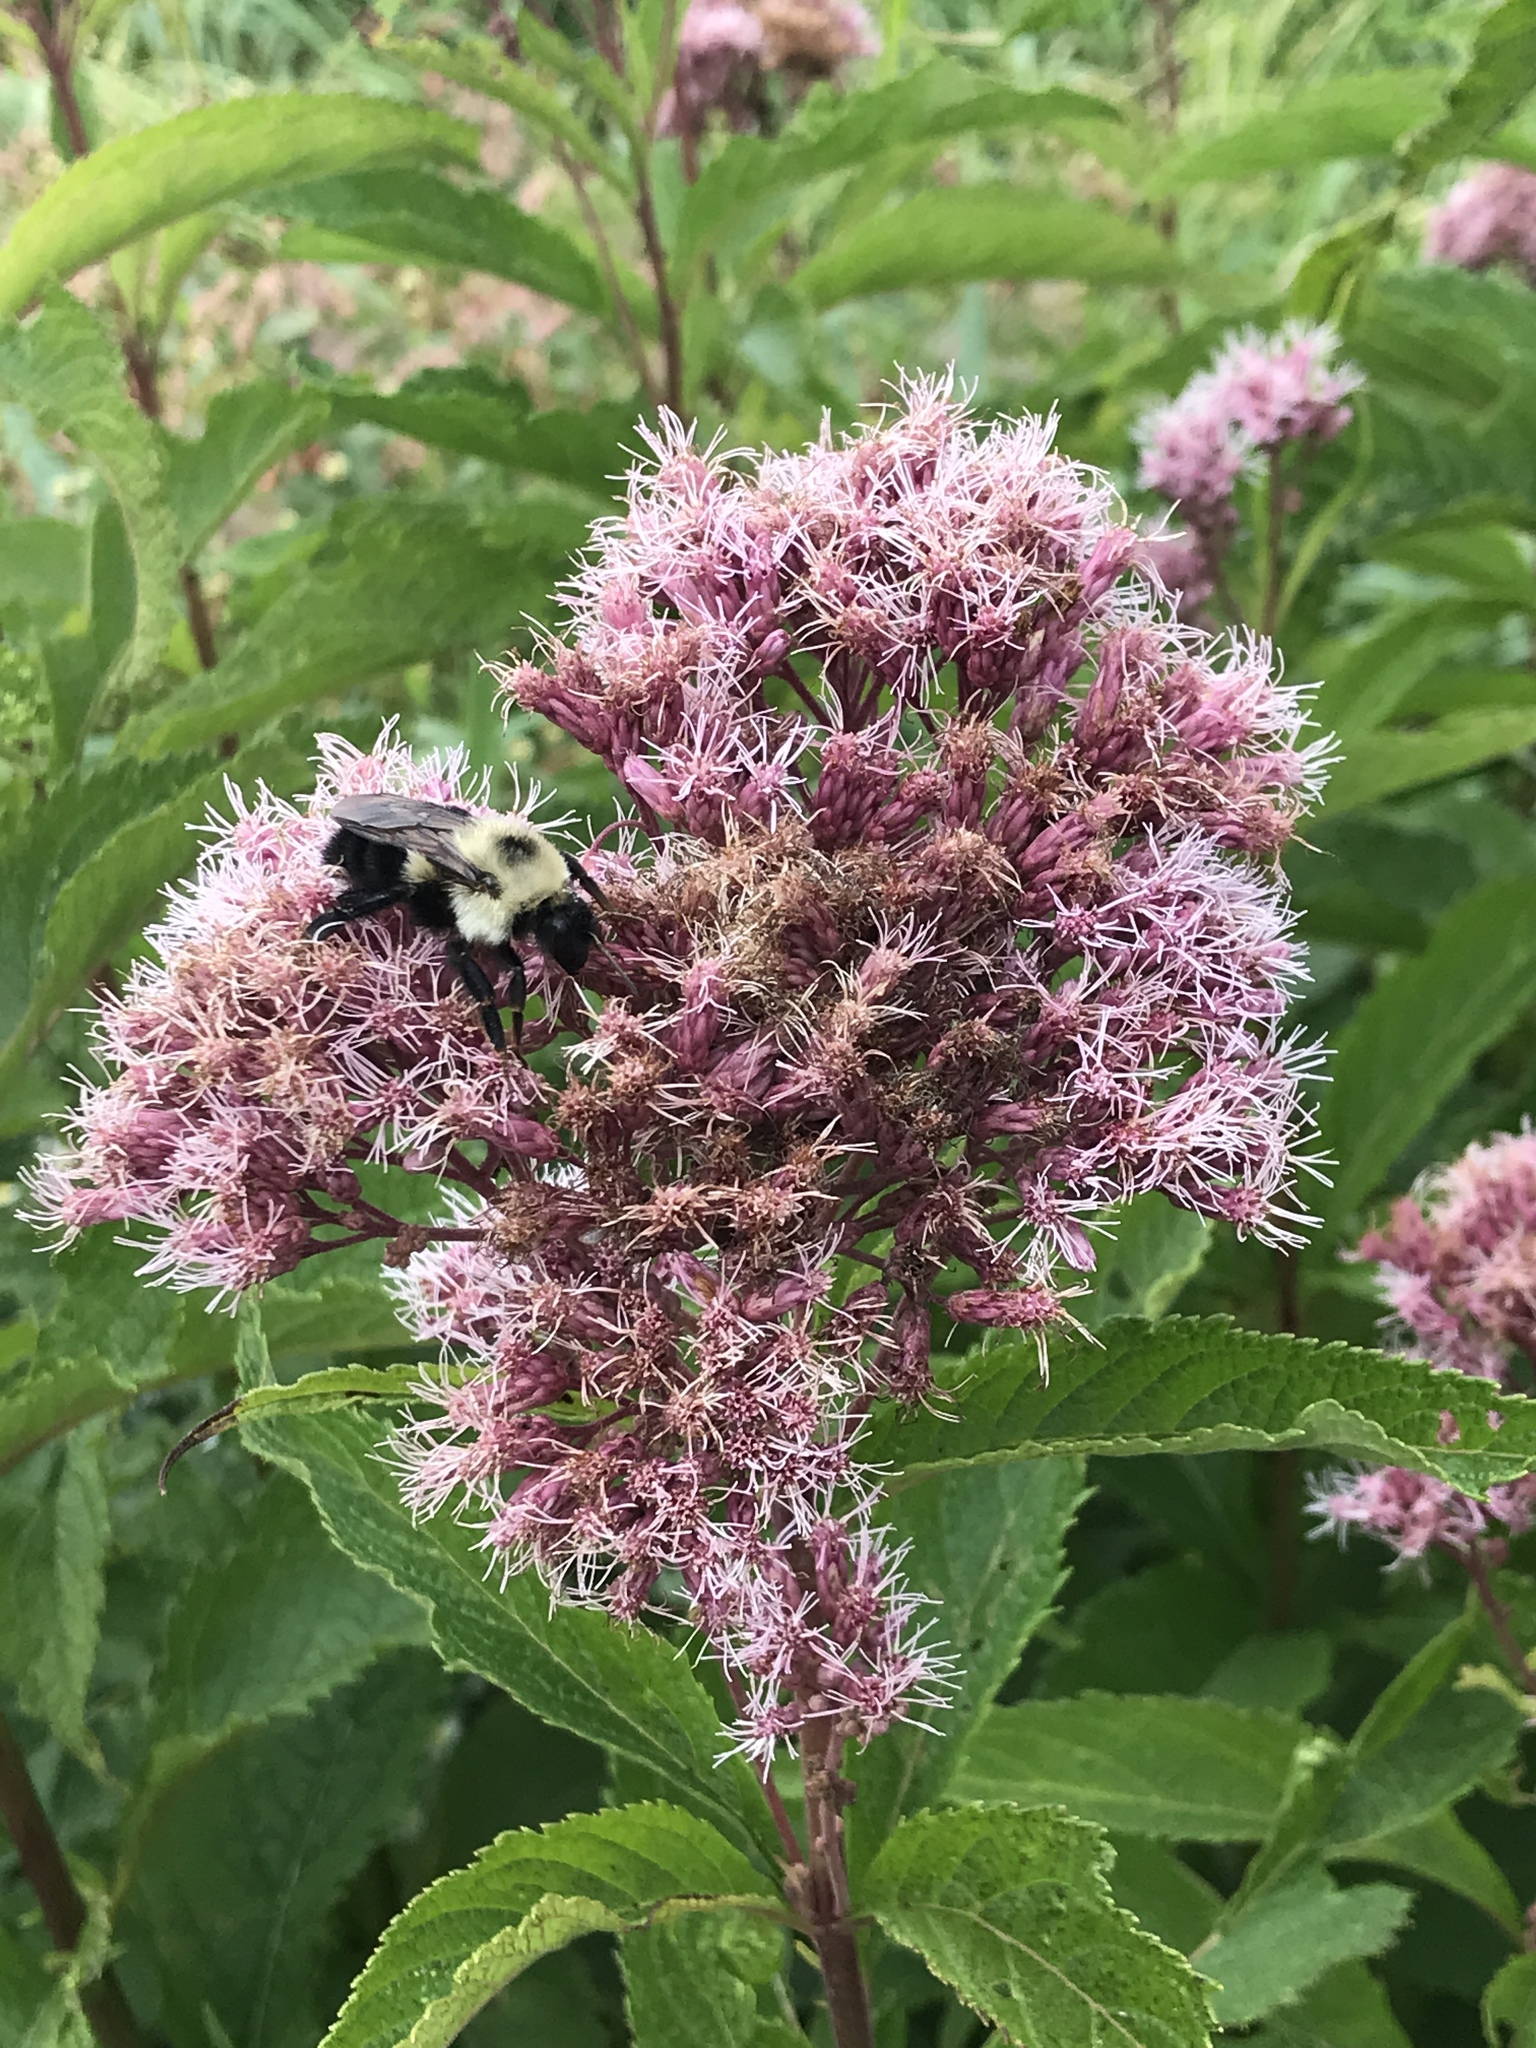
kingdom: Animalia
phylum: Arthropoda
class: Insecta
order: Hymenoptera
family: Apidae
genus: Bombus
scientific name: Bombus bimaculatus
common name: Two-spotted bumble bee
